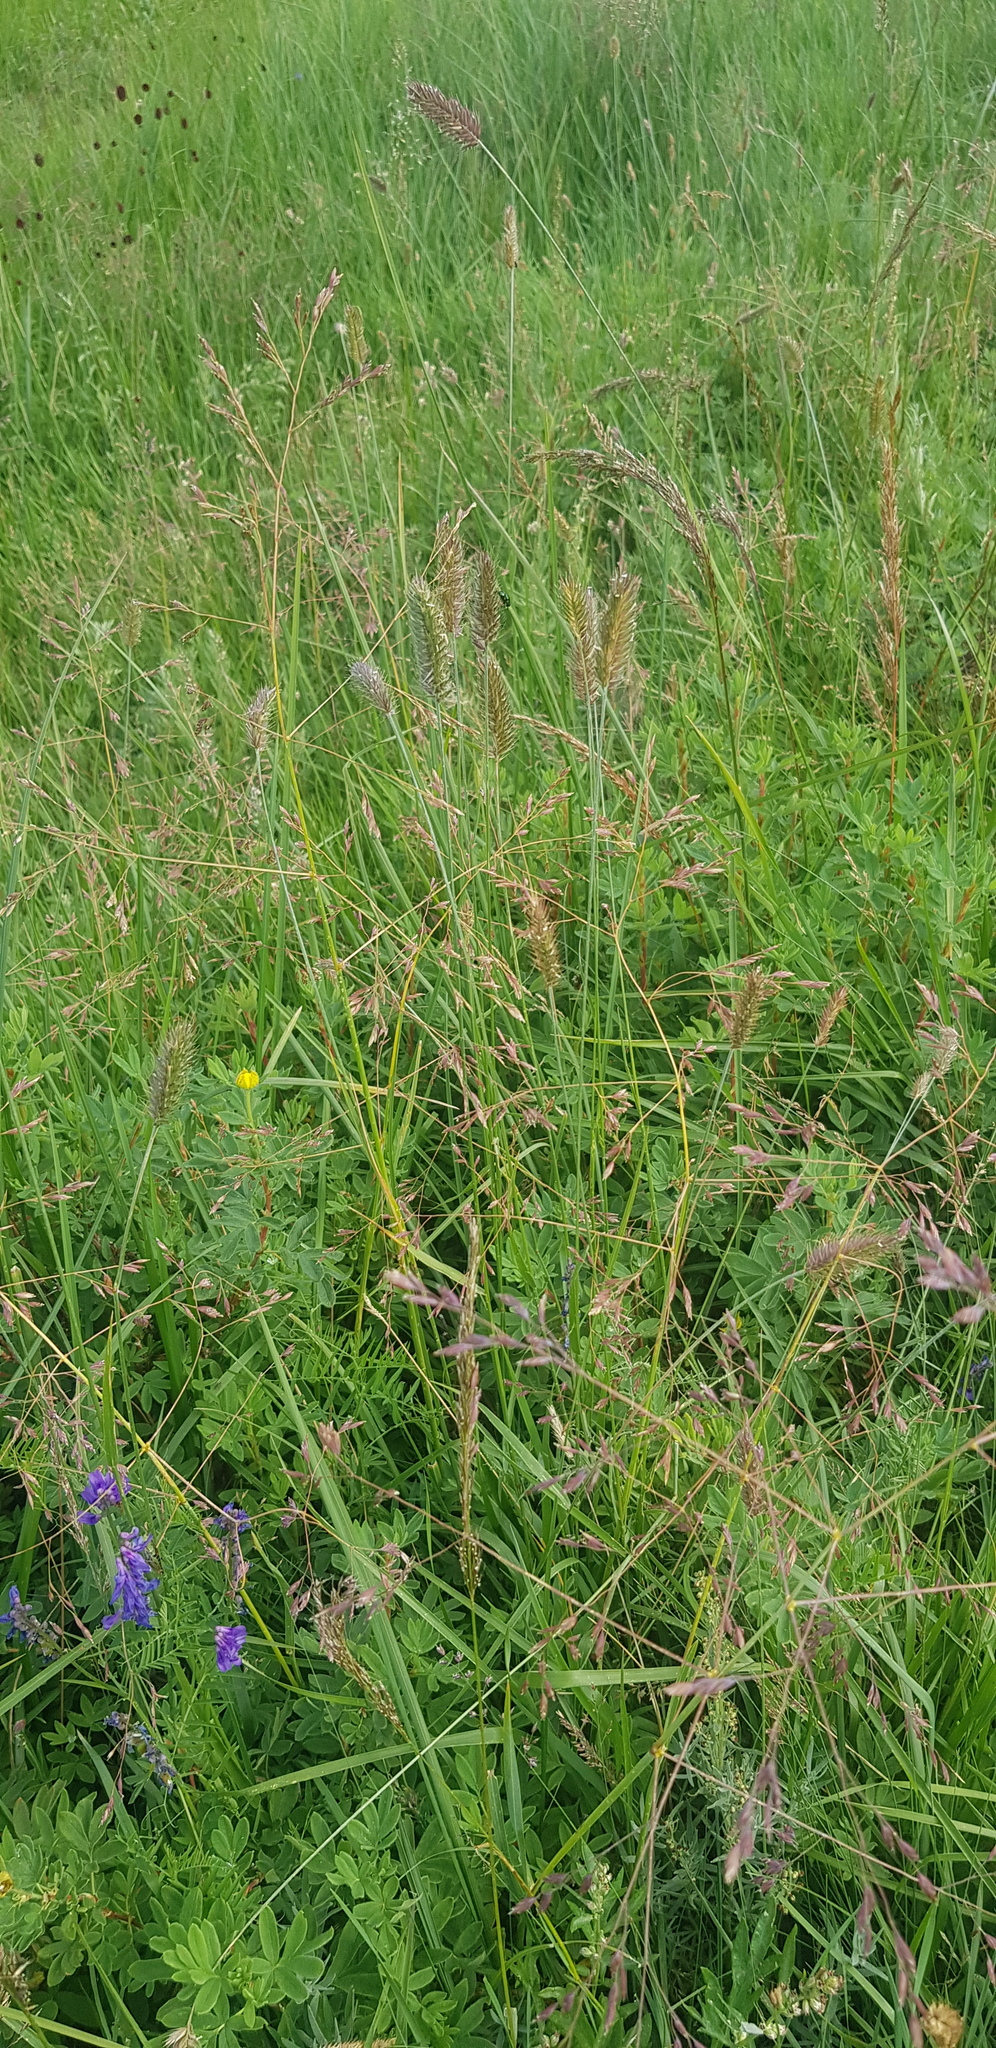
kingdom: Plantae
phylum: Tracheophyta
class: Liliopsida
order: Poales
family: Poaceae
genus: Agropyron
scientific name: Agropyron cristatum
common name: Crested wheatgrass
